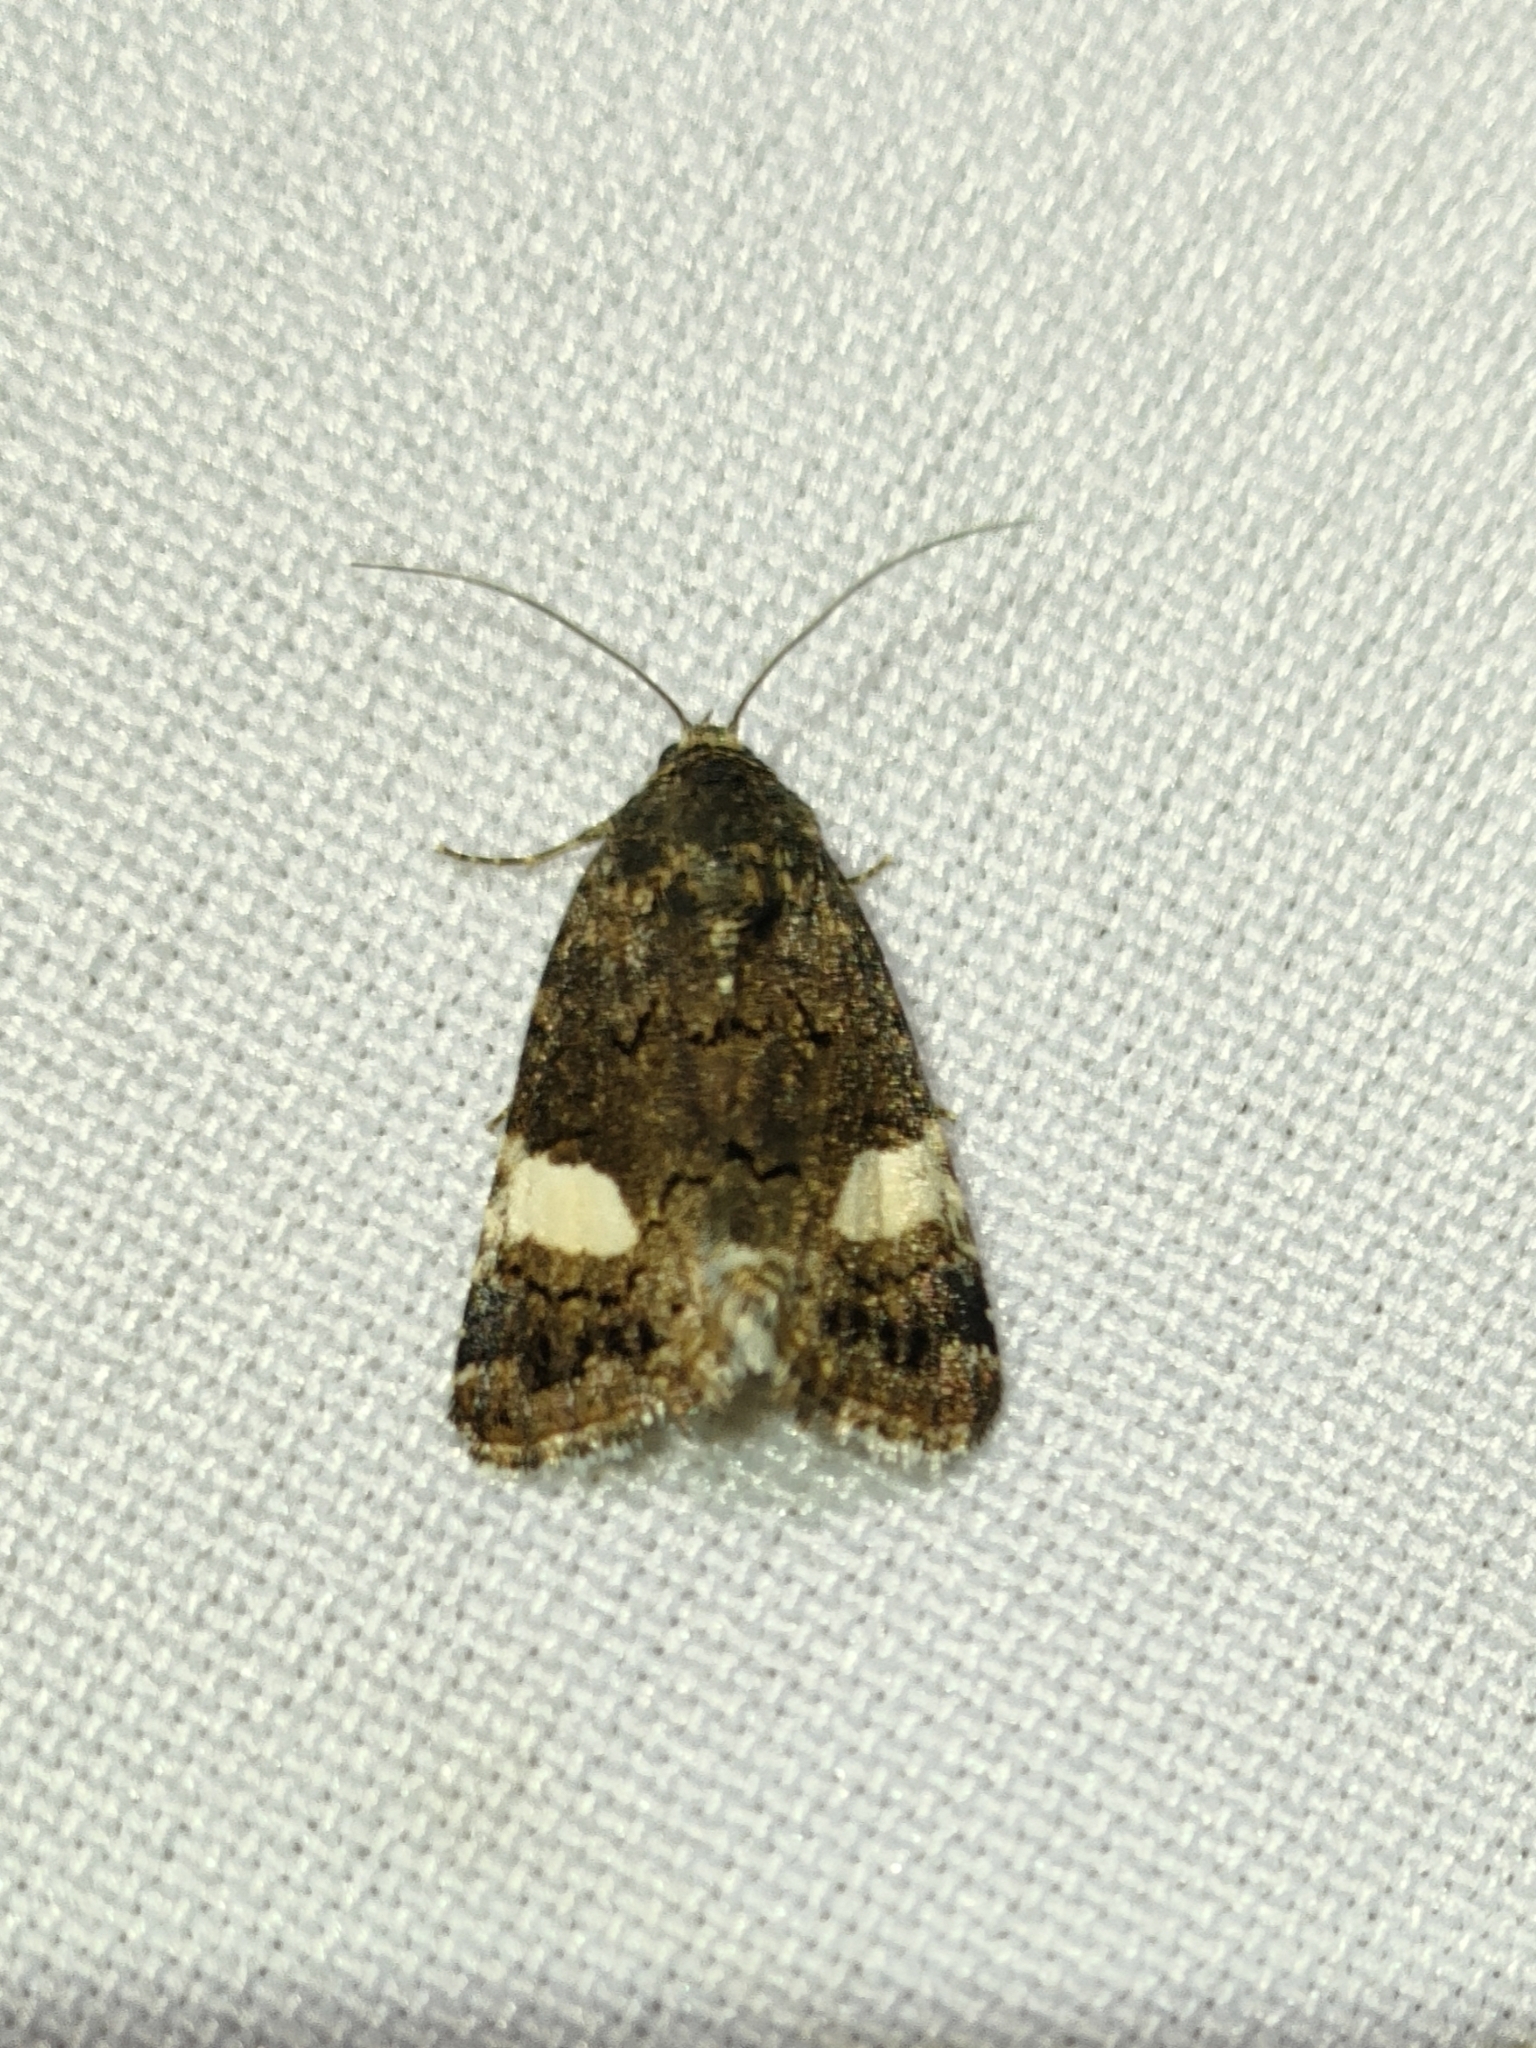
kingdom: Animalia
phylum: Arthropoda
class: Insecta
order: Lepidoptera
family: Erebidae
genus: Tyta
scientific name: Tyta luctuosa
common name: Four-spotted
